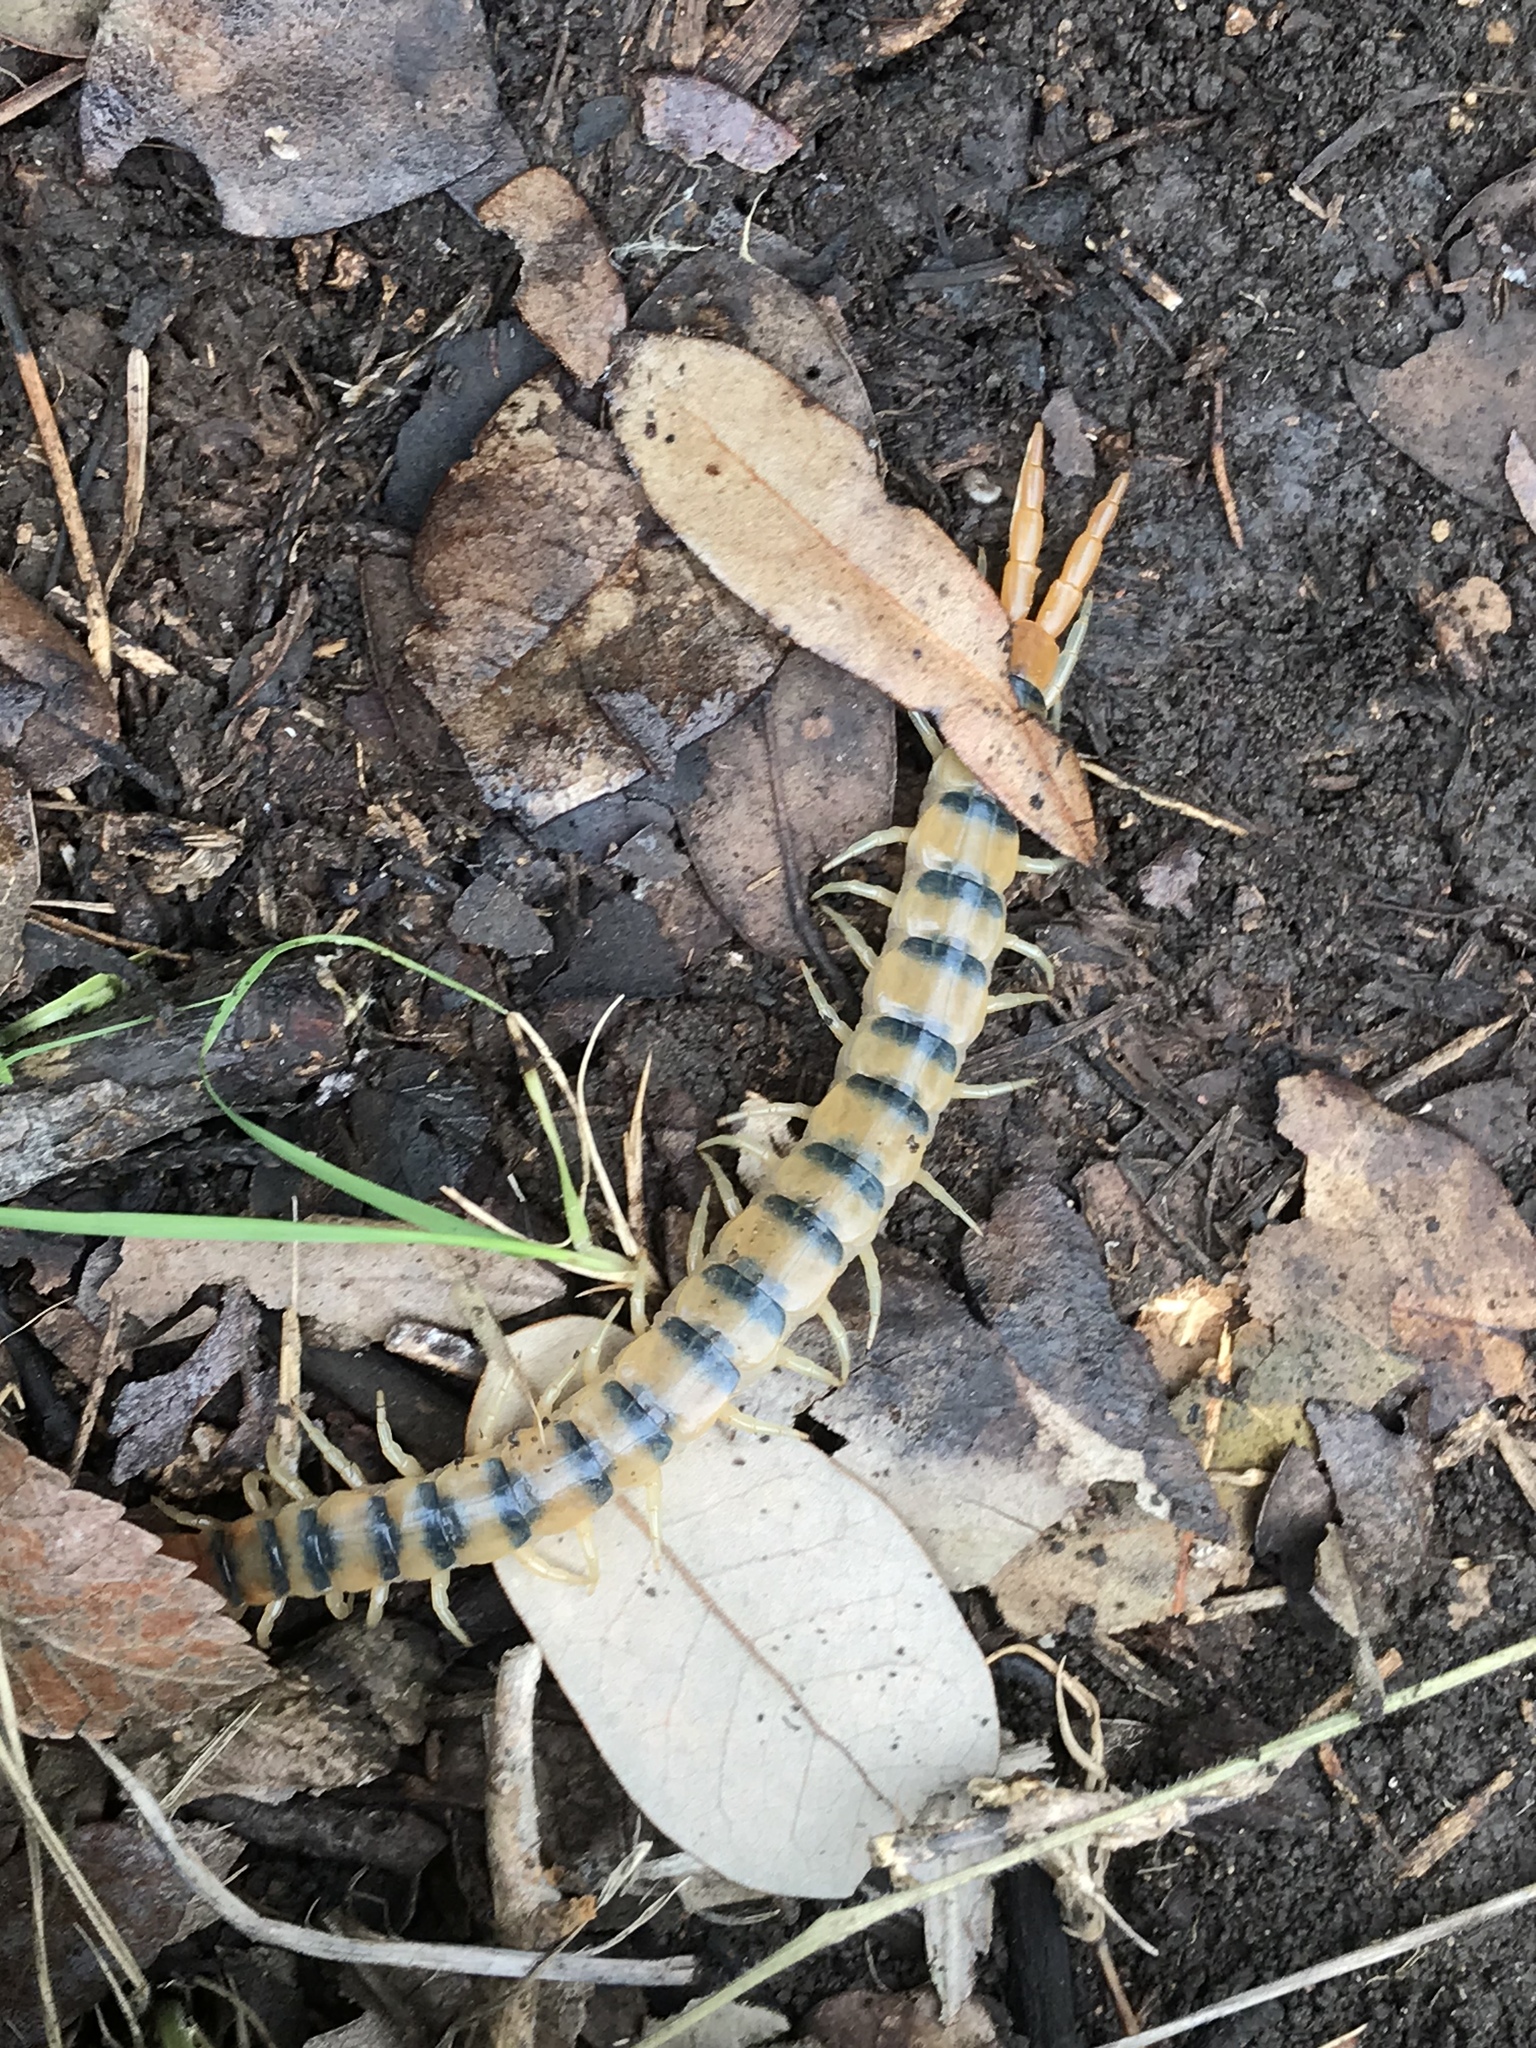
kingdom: Animalia
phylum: Arthropoda
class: Chilopoda
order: Scolopendromorpha
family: Scolopendridae
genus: Scolopendra
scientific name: Scolopendra polymorpha
